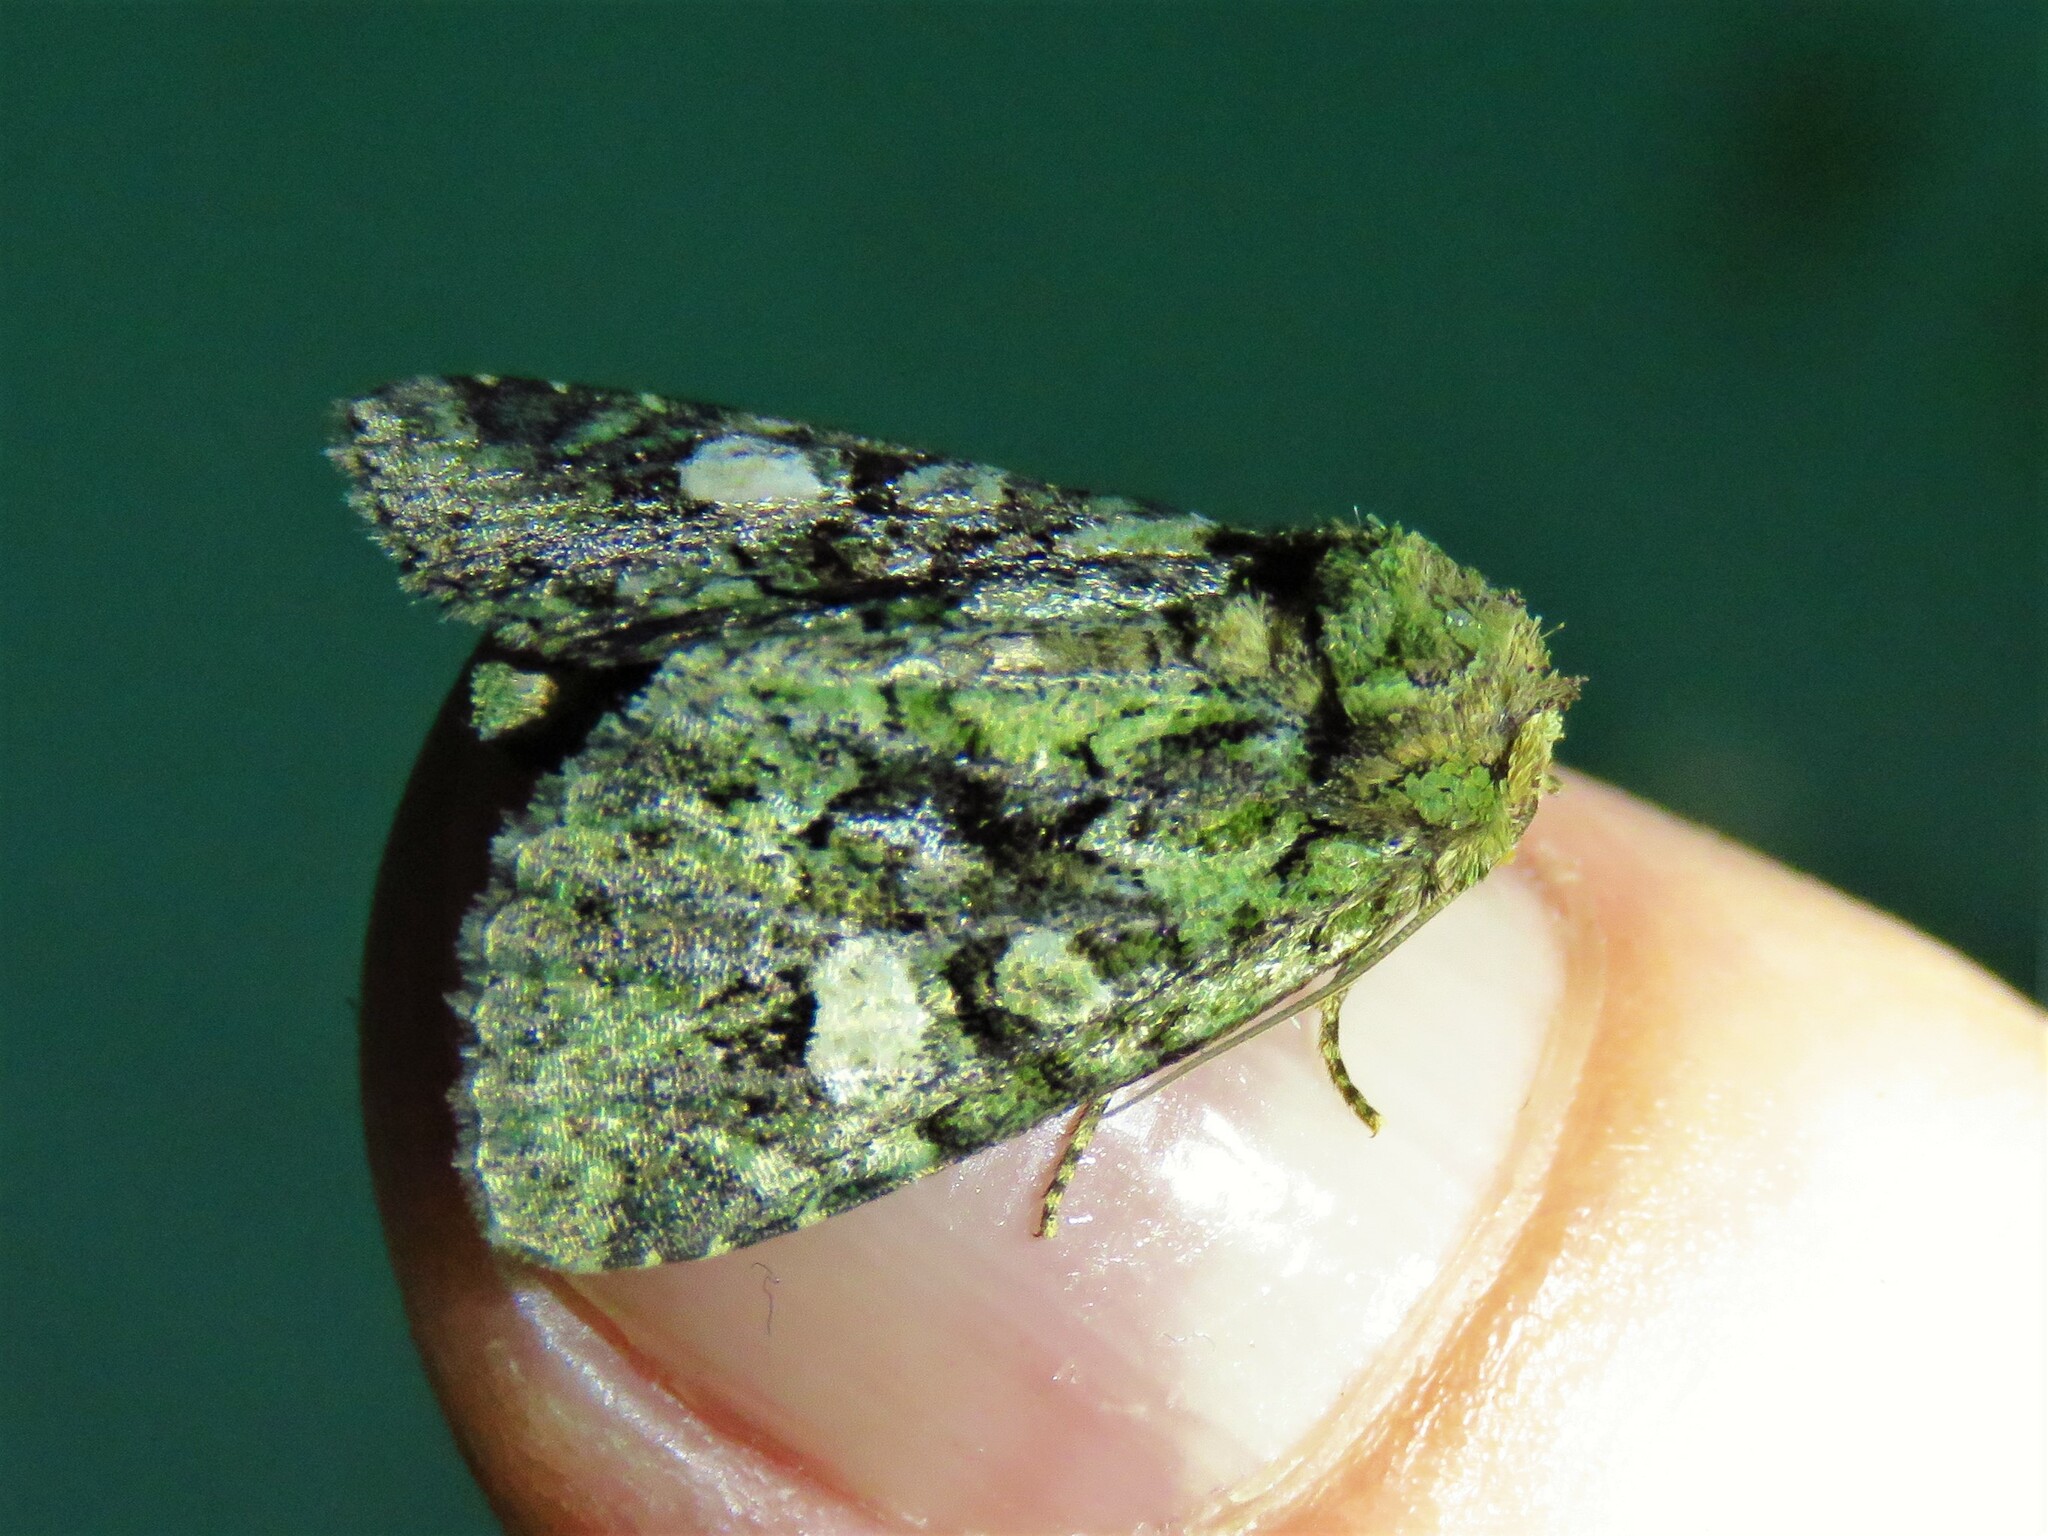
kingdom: Animalia
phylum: Arthropoda
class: Insecta
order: Lepidoptera
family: Noctuidae
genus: Phosphila
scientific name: Phosphila miselioides
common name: Spotted phosphila moth
